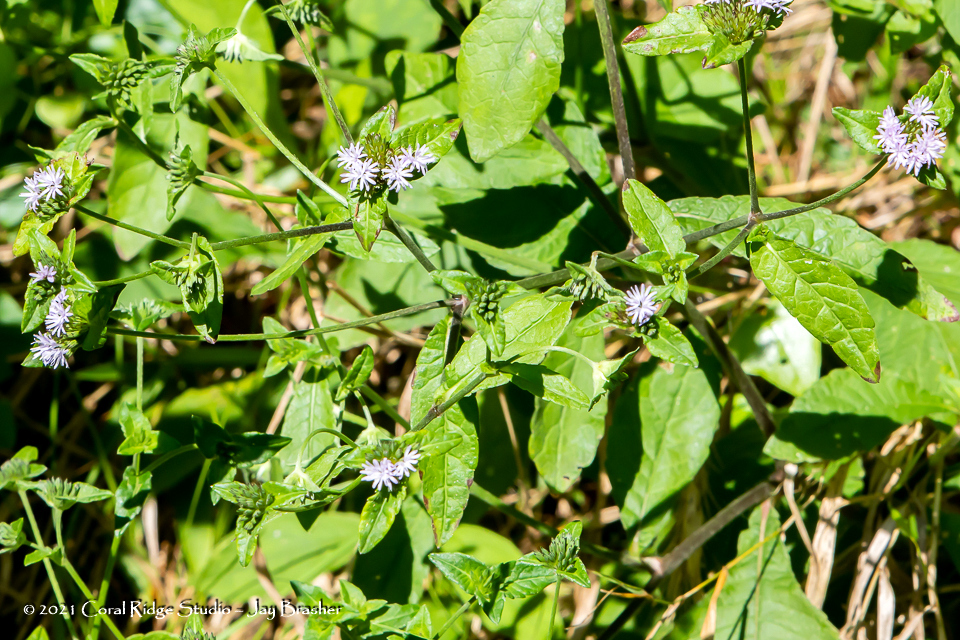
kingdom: Plantae
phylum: Tracheophyta
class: Magnoliopsida
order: Asterales
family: Asteraceae
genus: Elephantopus
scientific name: Elephantopus carolinianus
